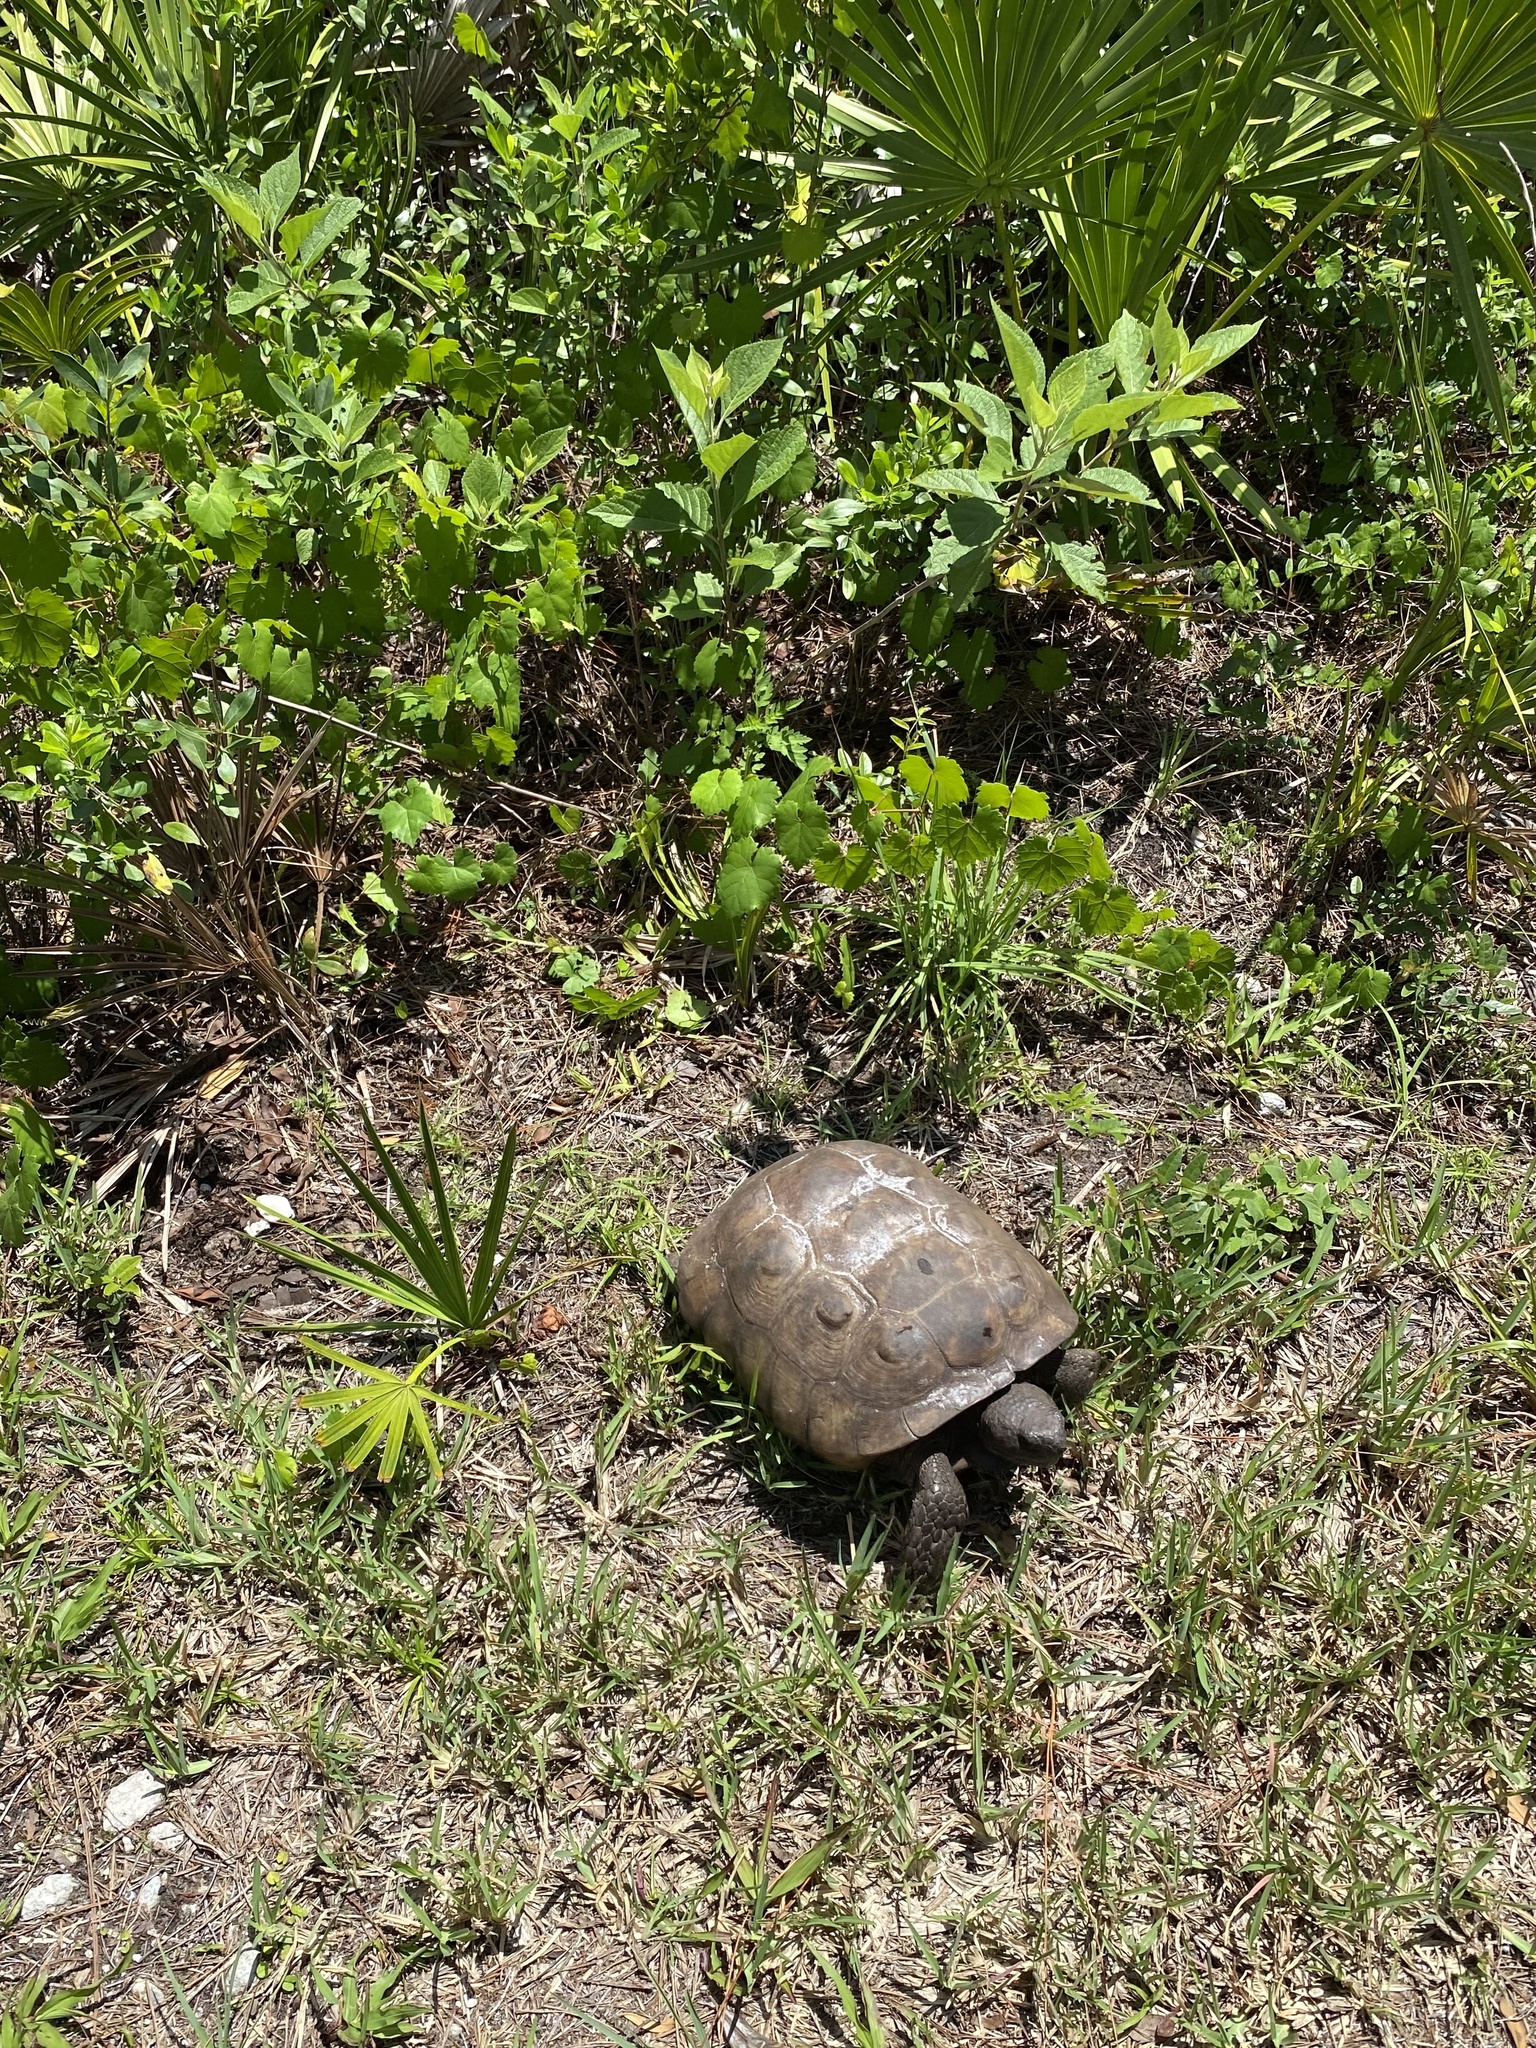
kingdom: Animalia
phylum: Chordata
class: Testudines
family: Testudinidae
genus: Gopherus
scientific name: Gopherus polyphemus
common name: Florida gopher tortoise
